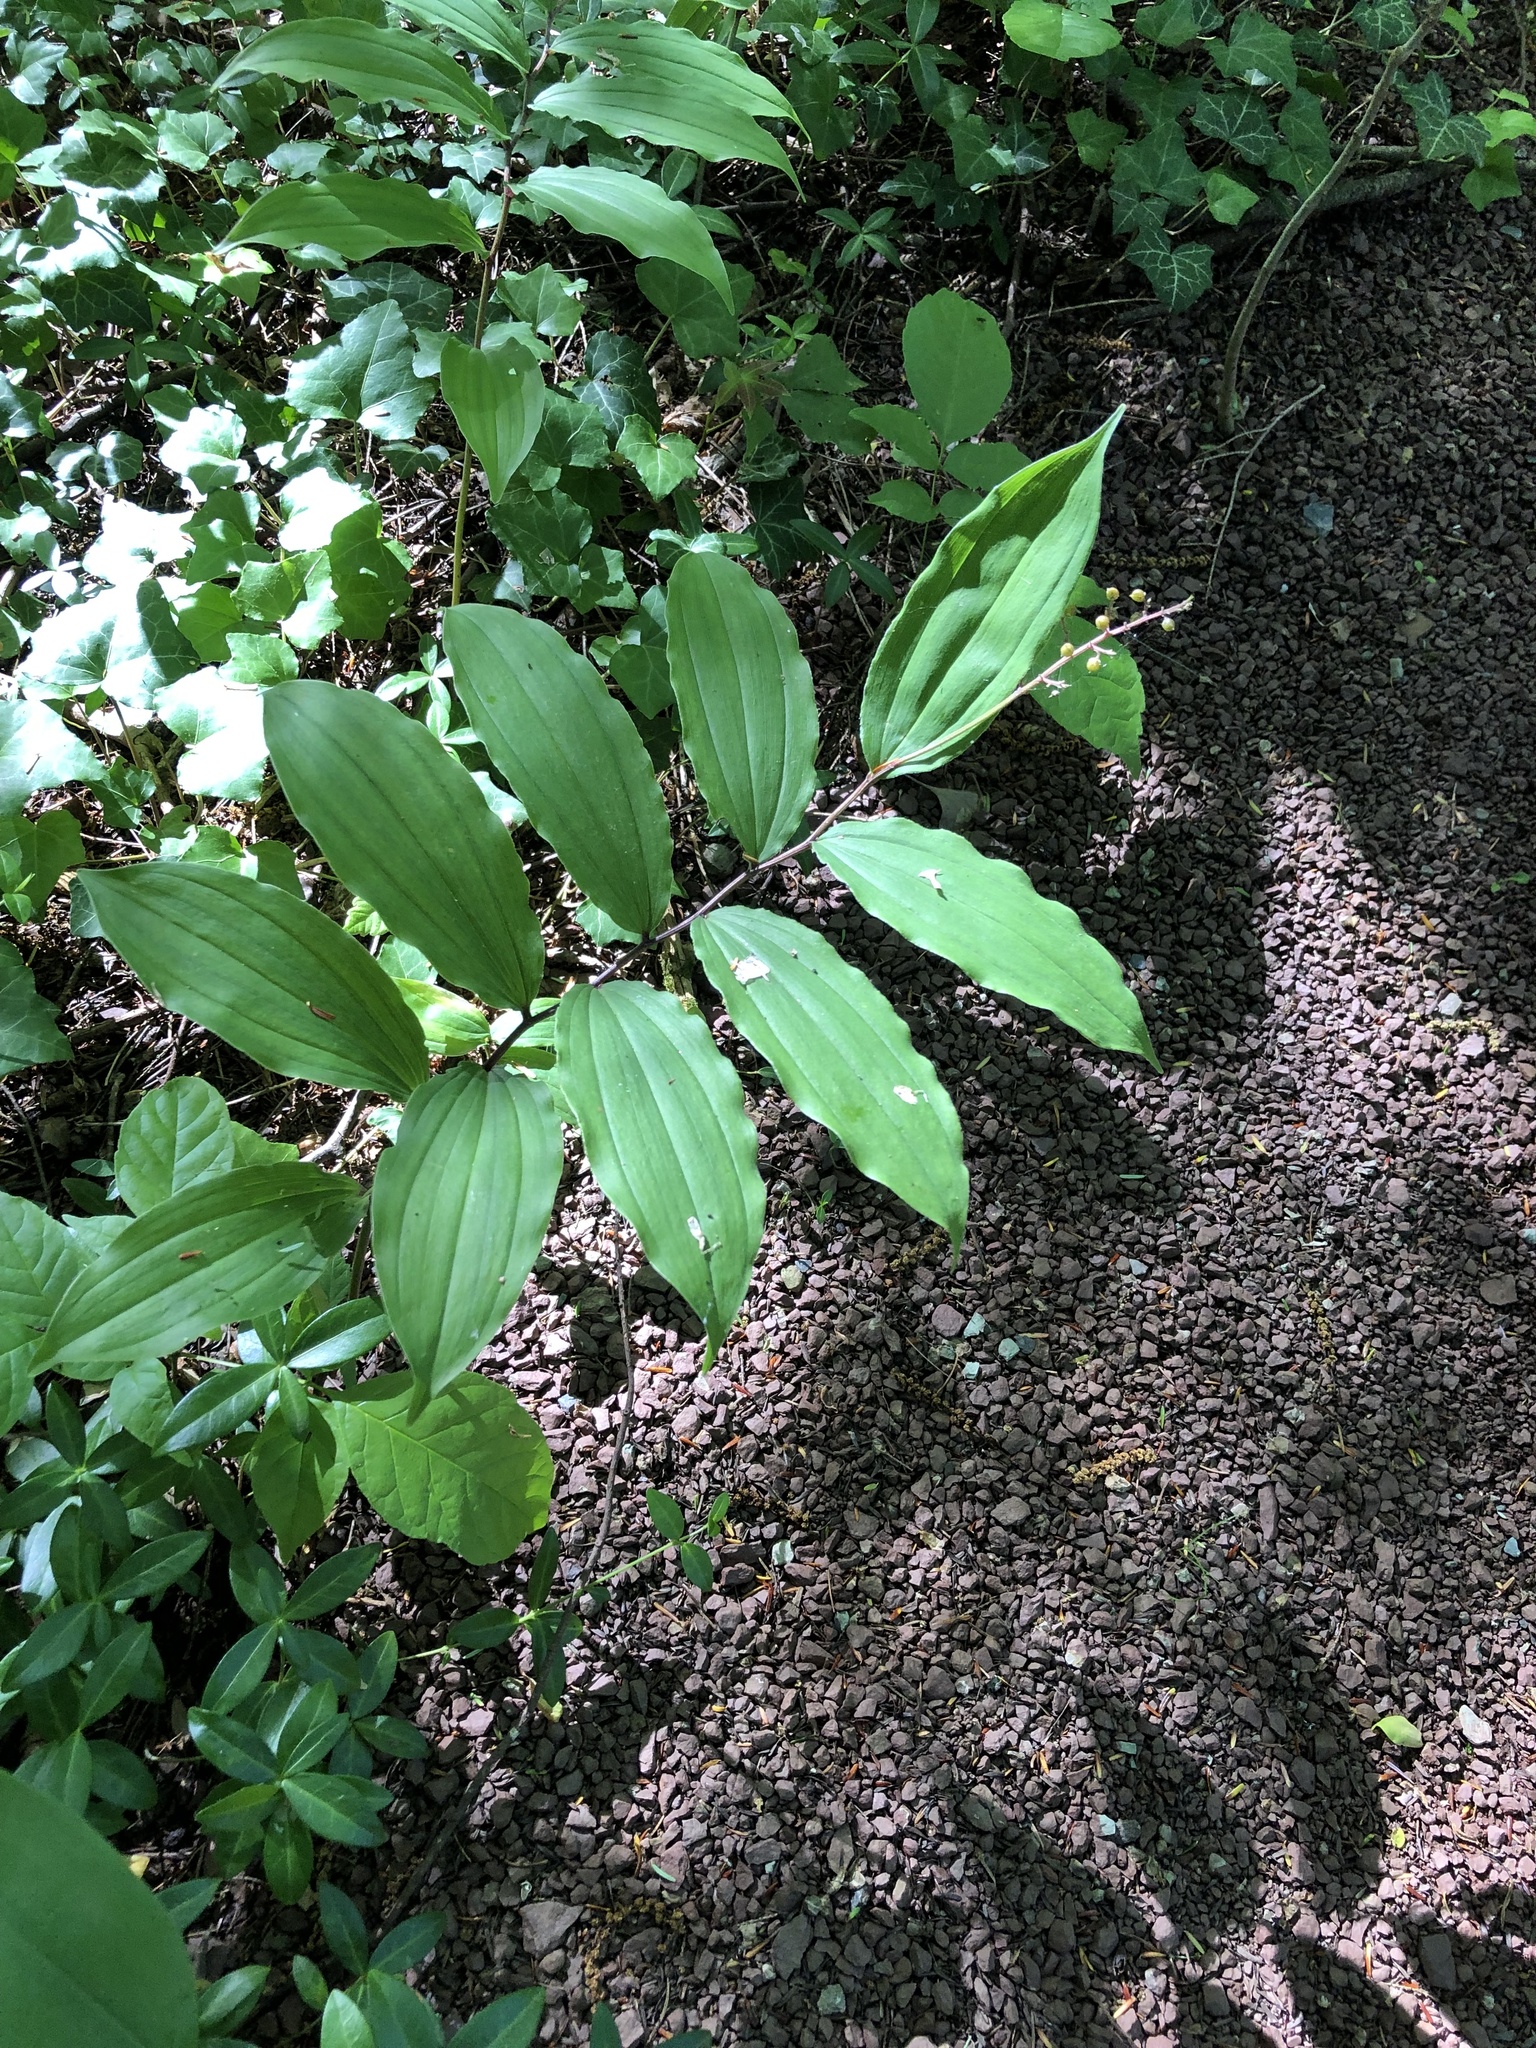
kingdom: Plantae
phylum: Tracheophyta
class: Liliopsida
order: Asparagales
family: Asparagaceae
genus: Maianthemum
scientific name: Maianthemum racemosum
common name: False spikenard
